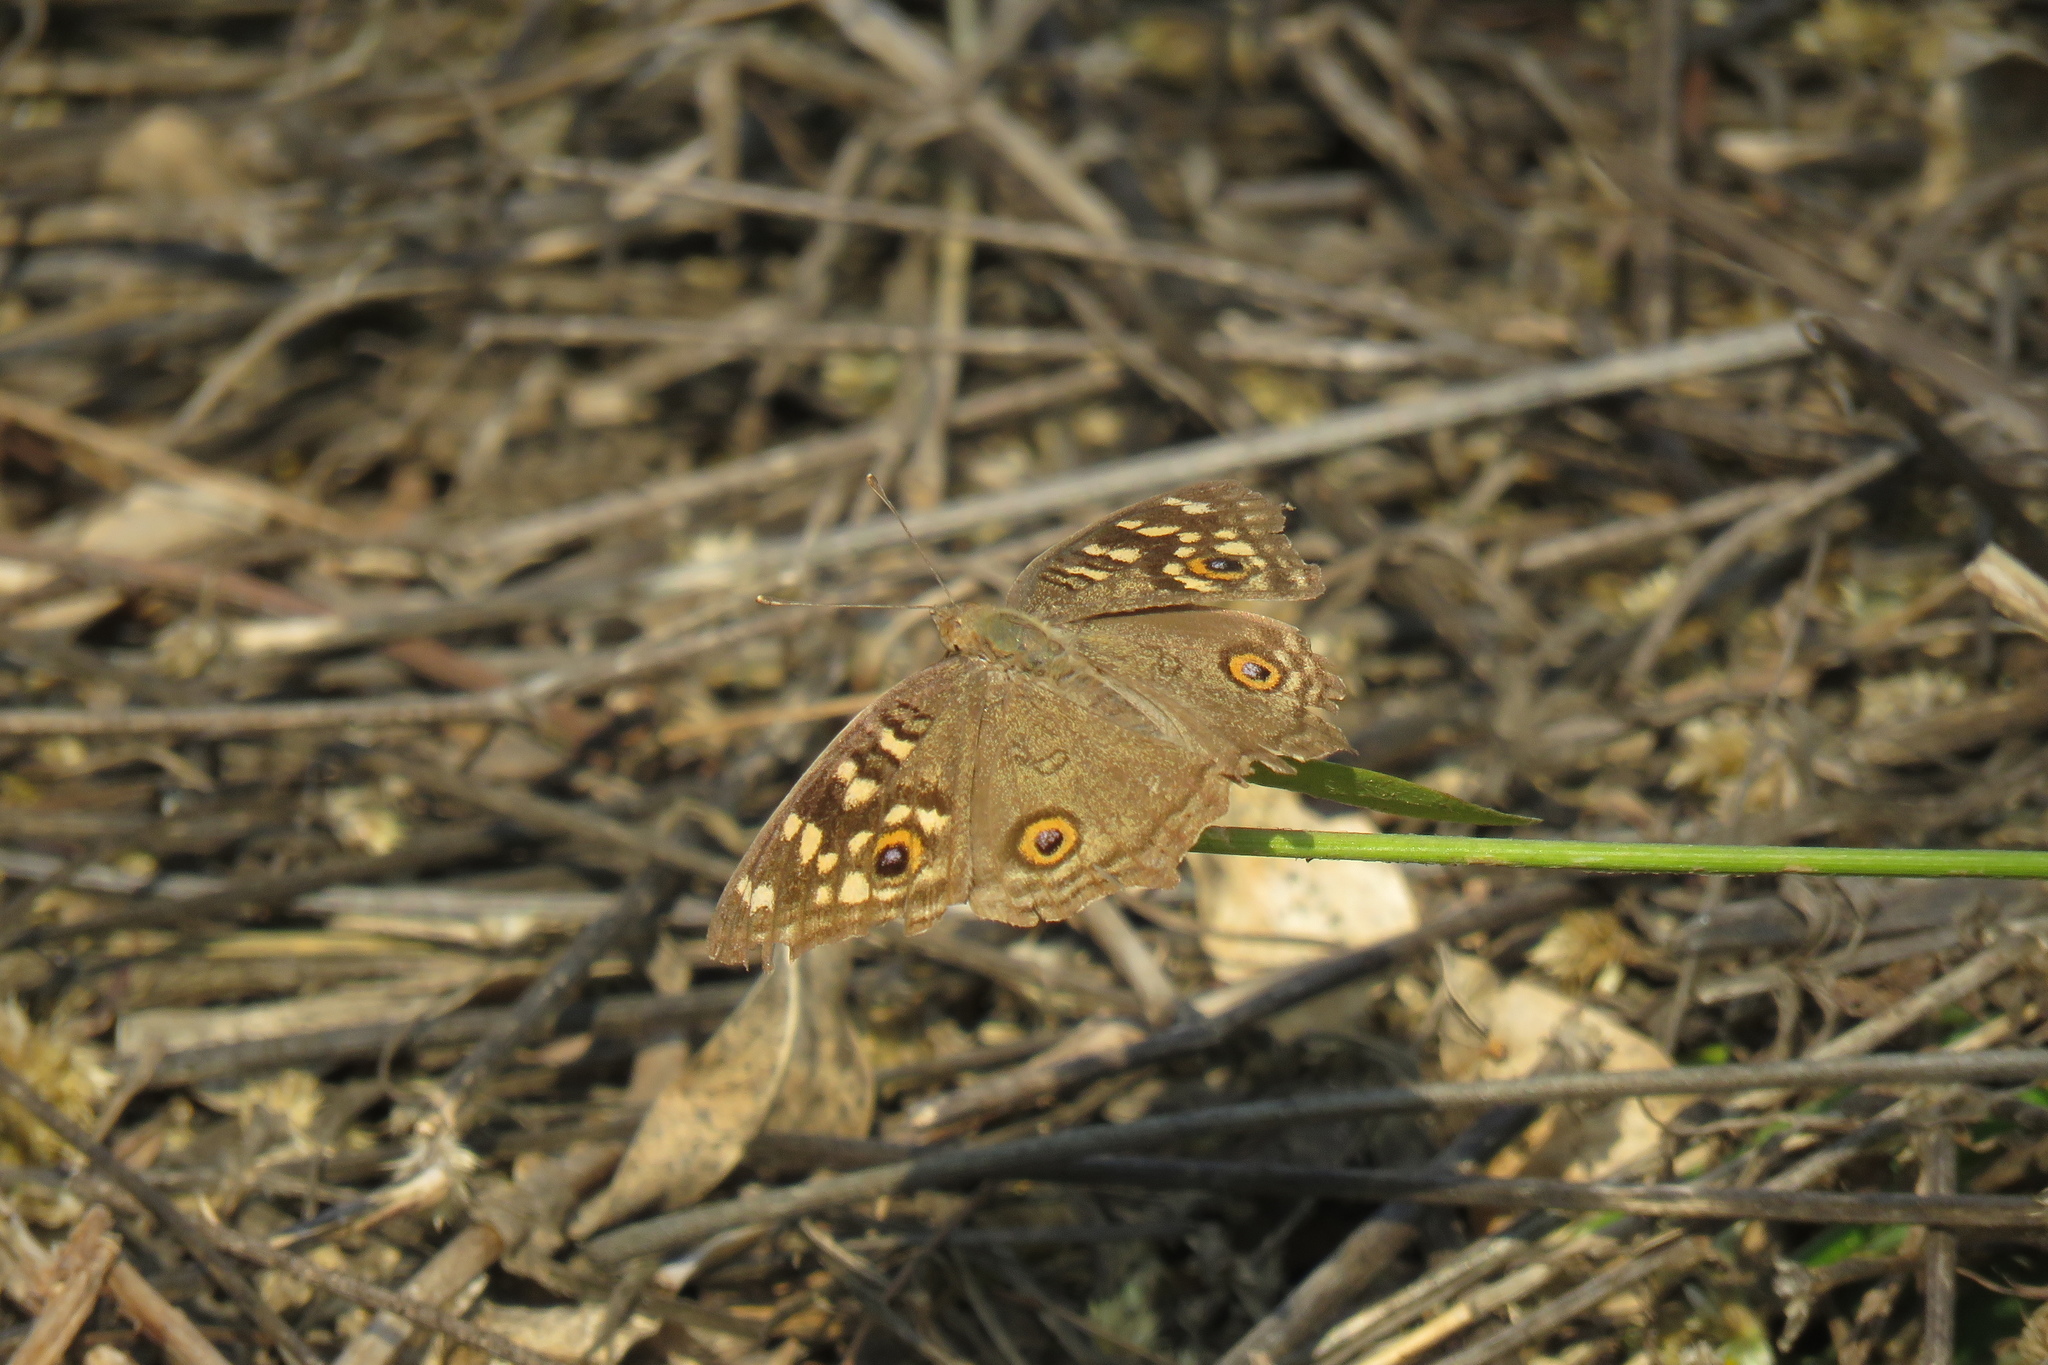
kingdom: Animalia
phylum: Arthropoda
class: Insecta
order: Lepidoptera
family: Nymphalidae
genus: Junonia
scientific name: Junonia lemonias
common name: Lemon pansy
